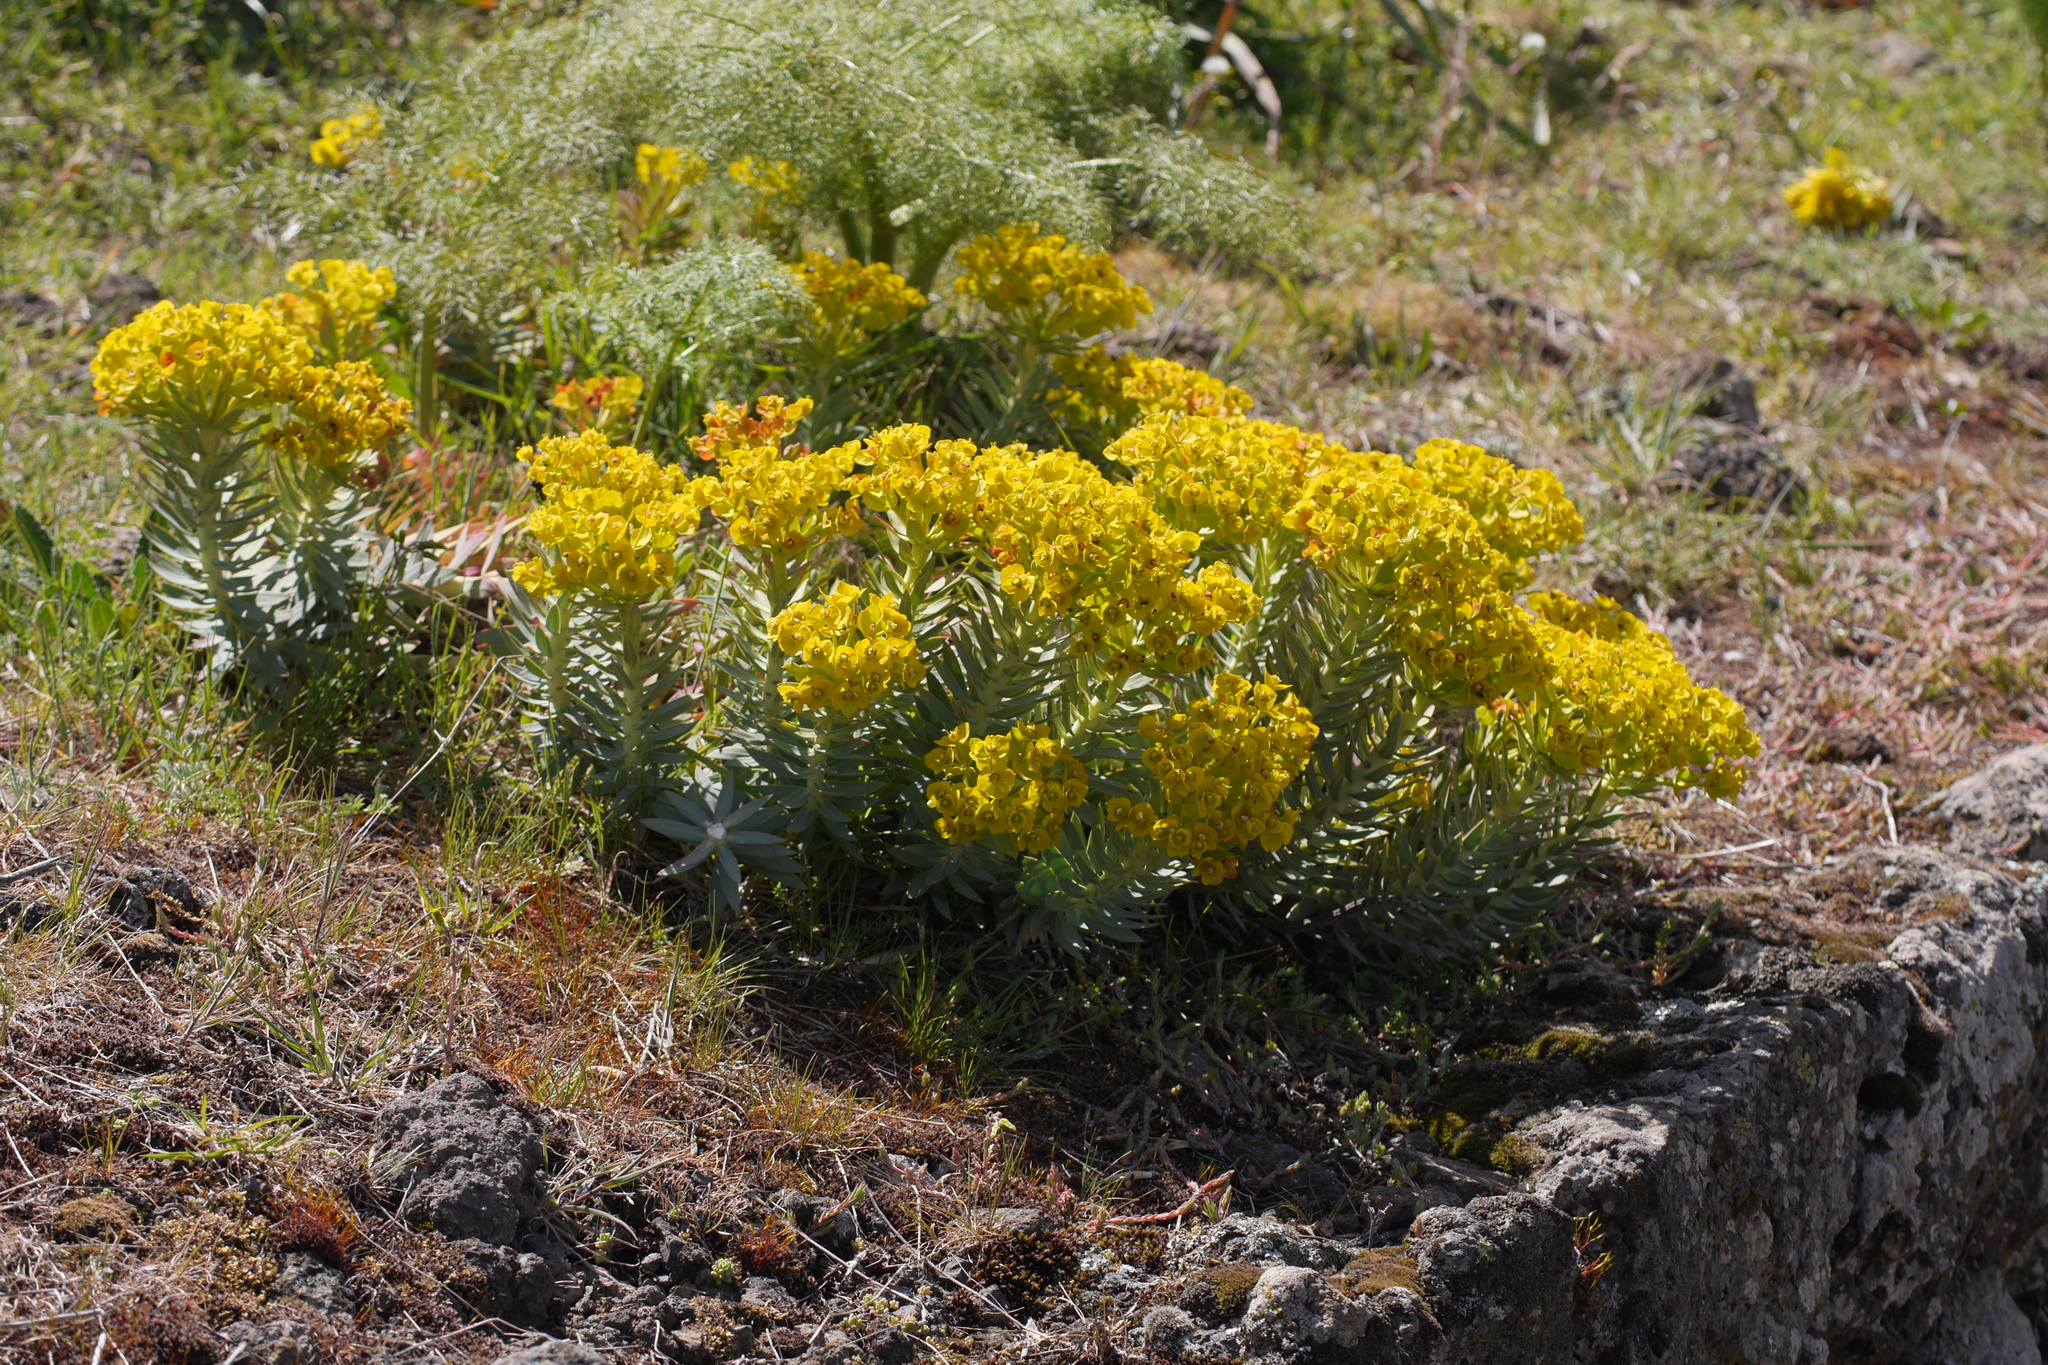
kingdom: Plantae
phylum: Tracheophyta
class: Magnoliopsida
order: Malpighiales
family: Euphorbiaceae
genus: Euphorbia
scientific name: Euphorbia rigida
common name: Upright myrtle spurge
